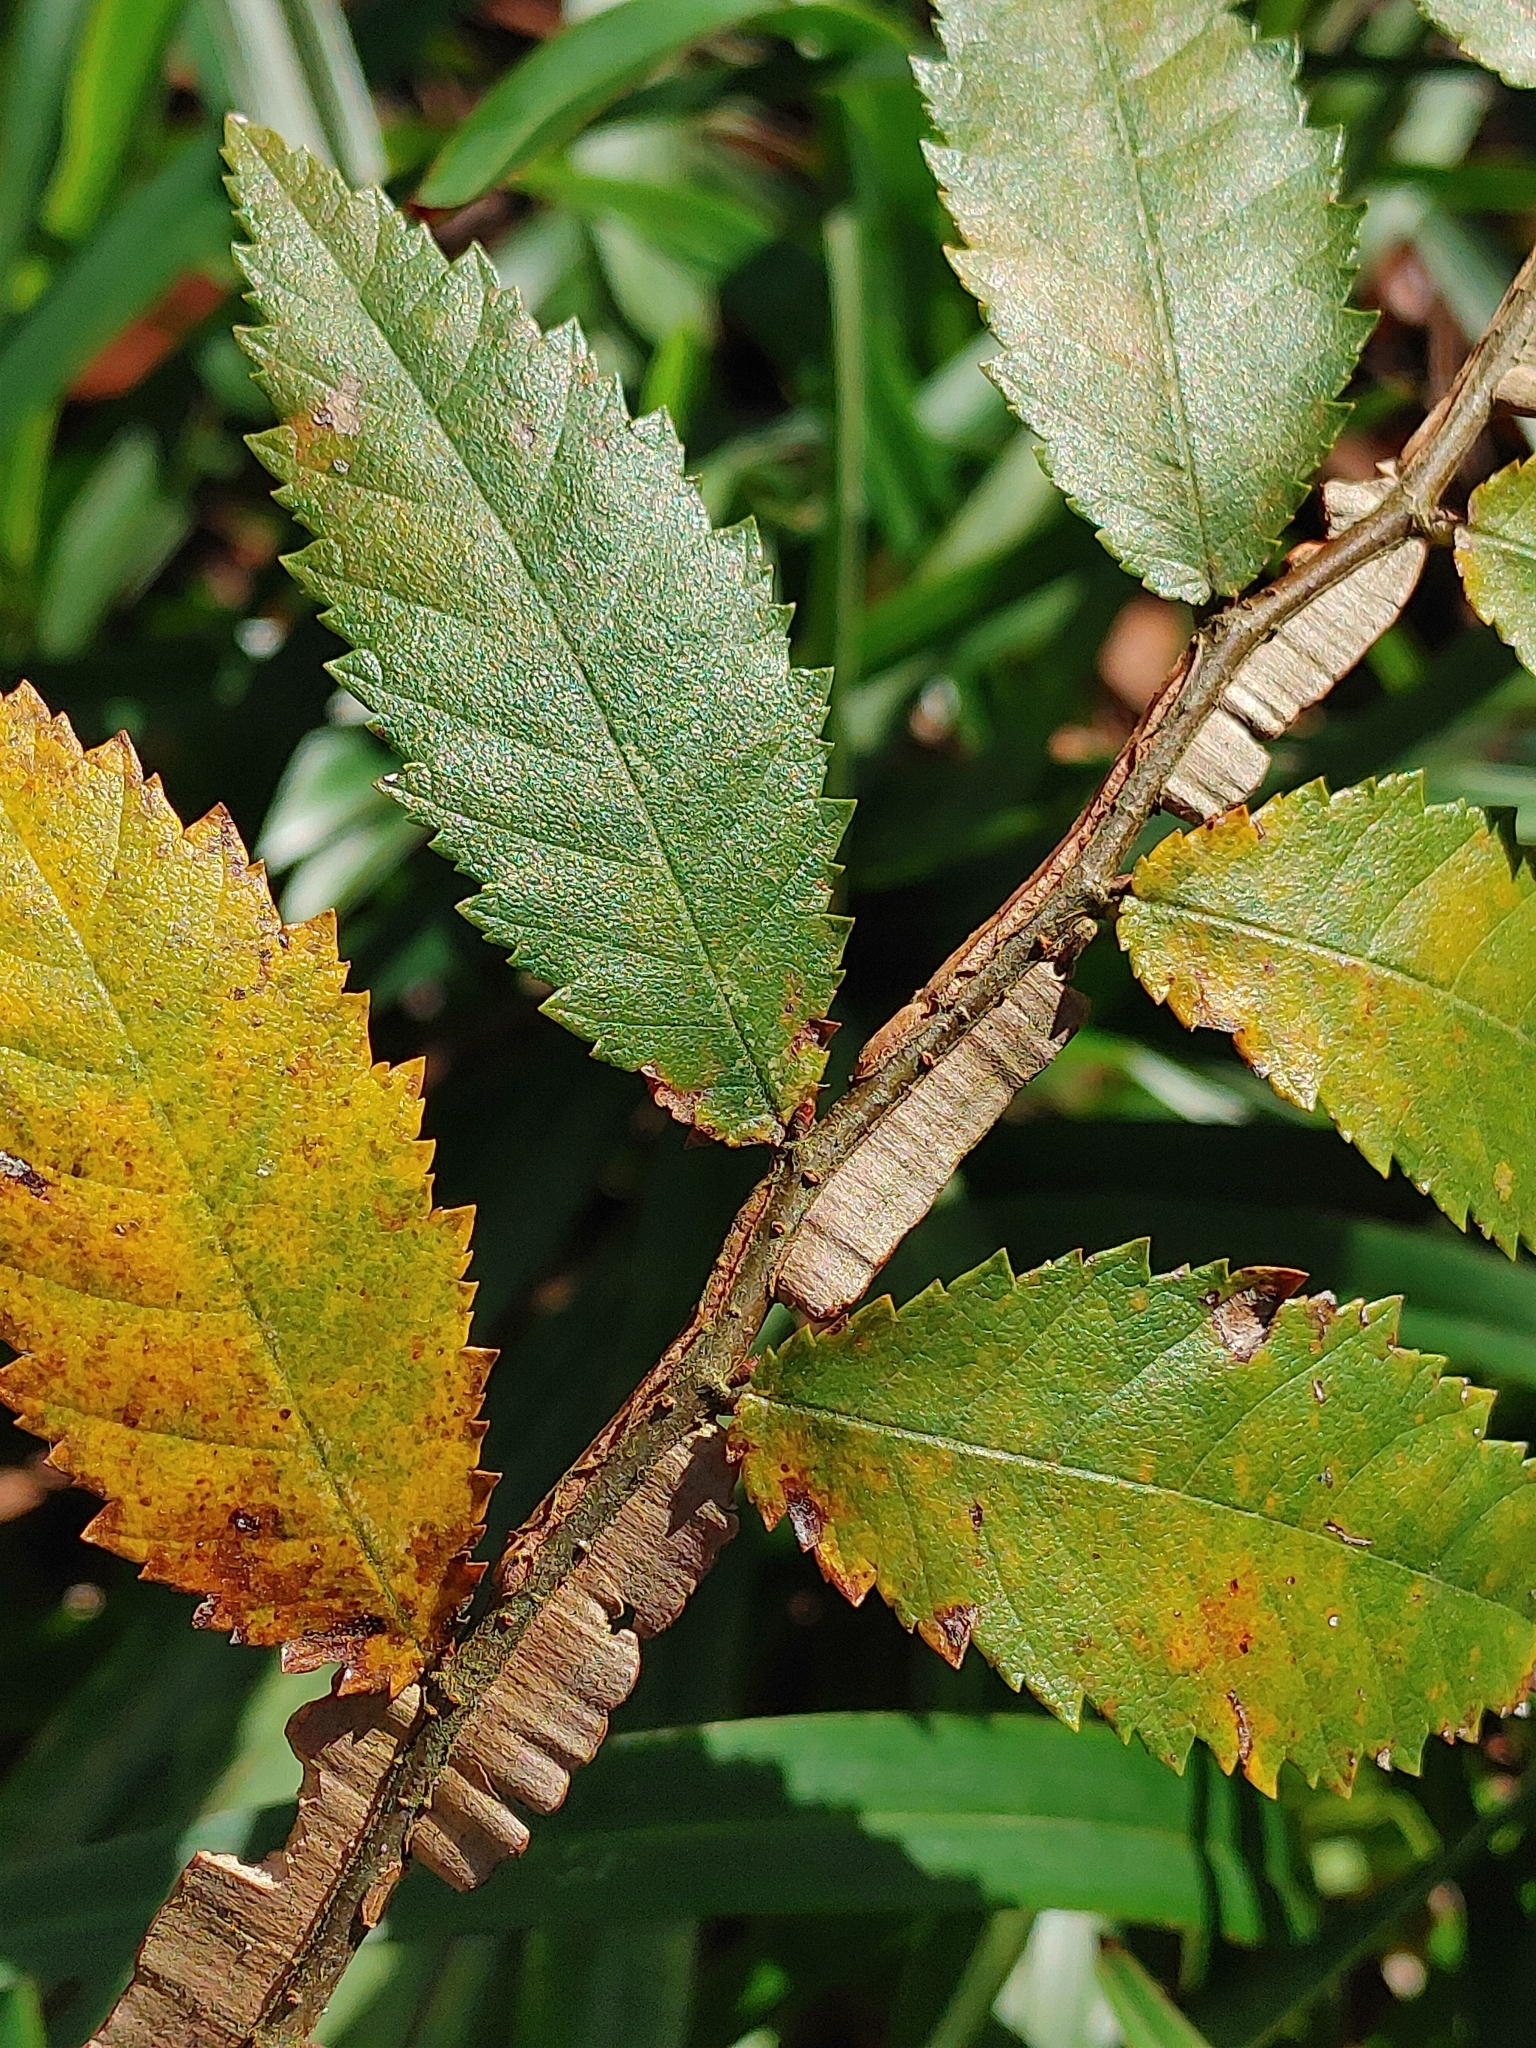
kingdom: Plantae
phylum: Tracheophyta
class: Magnoliopsida
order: Rosales
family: Ulmaceae
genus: Ulmus
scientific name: Ulmus alata
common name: Winged elm
